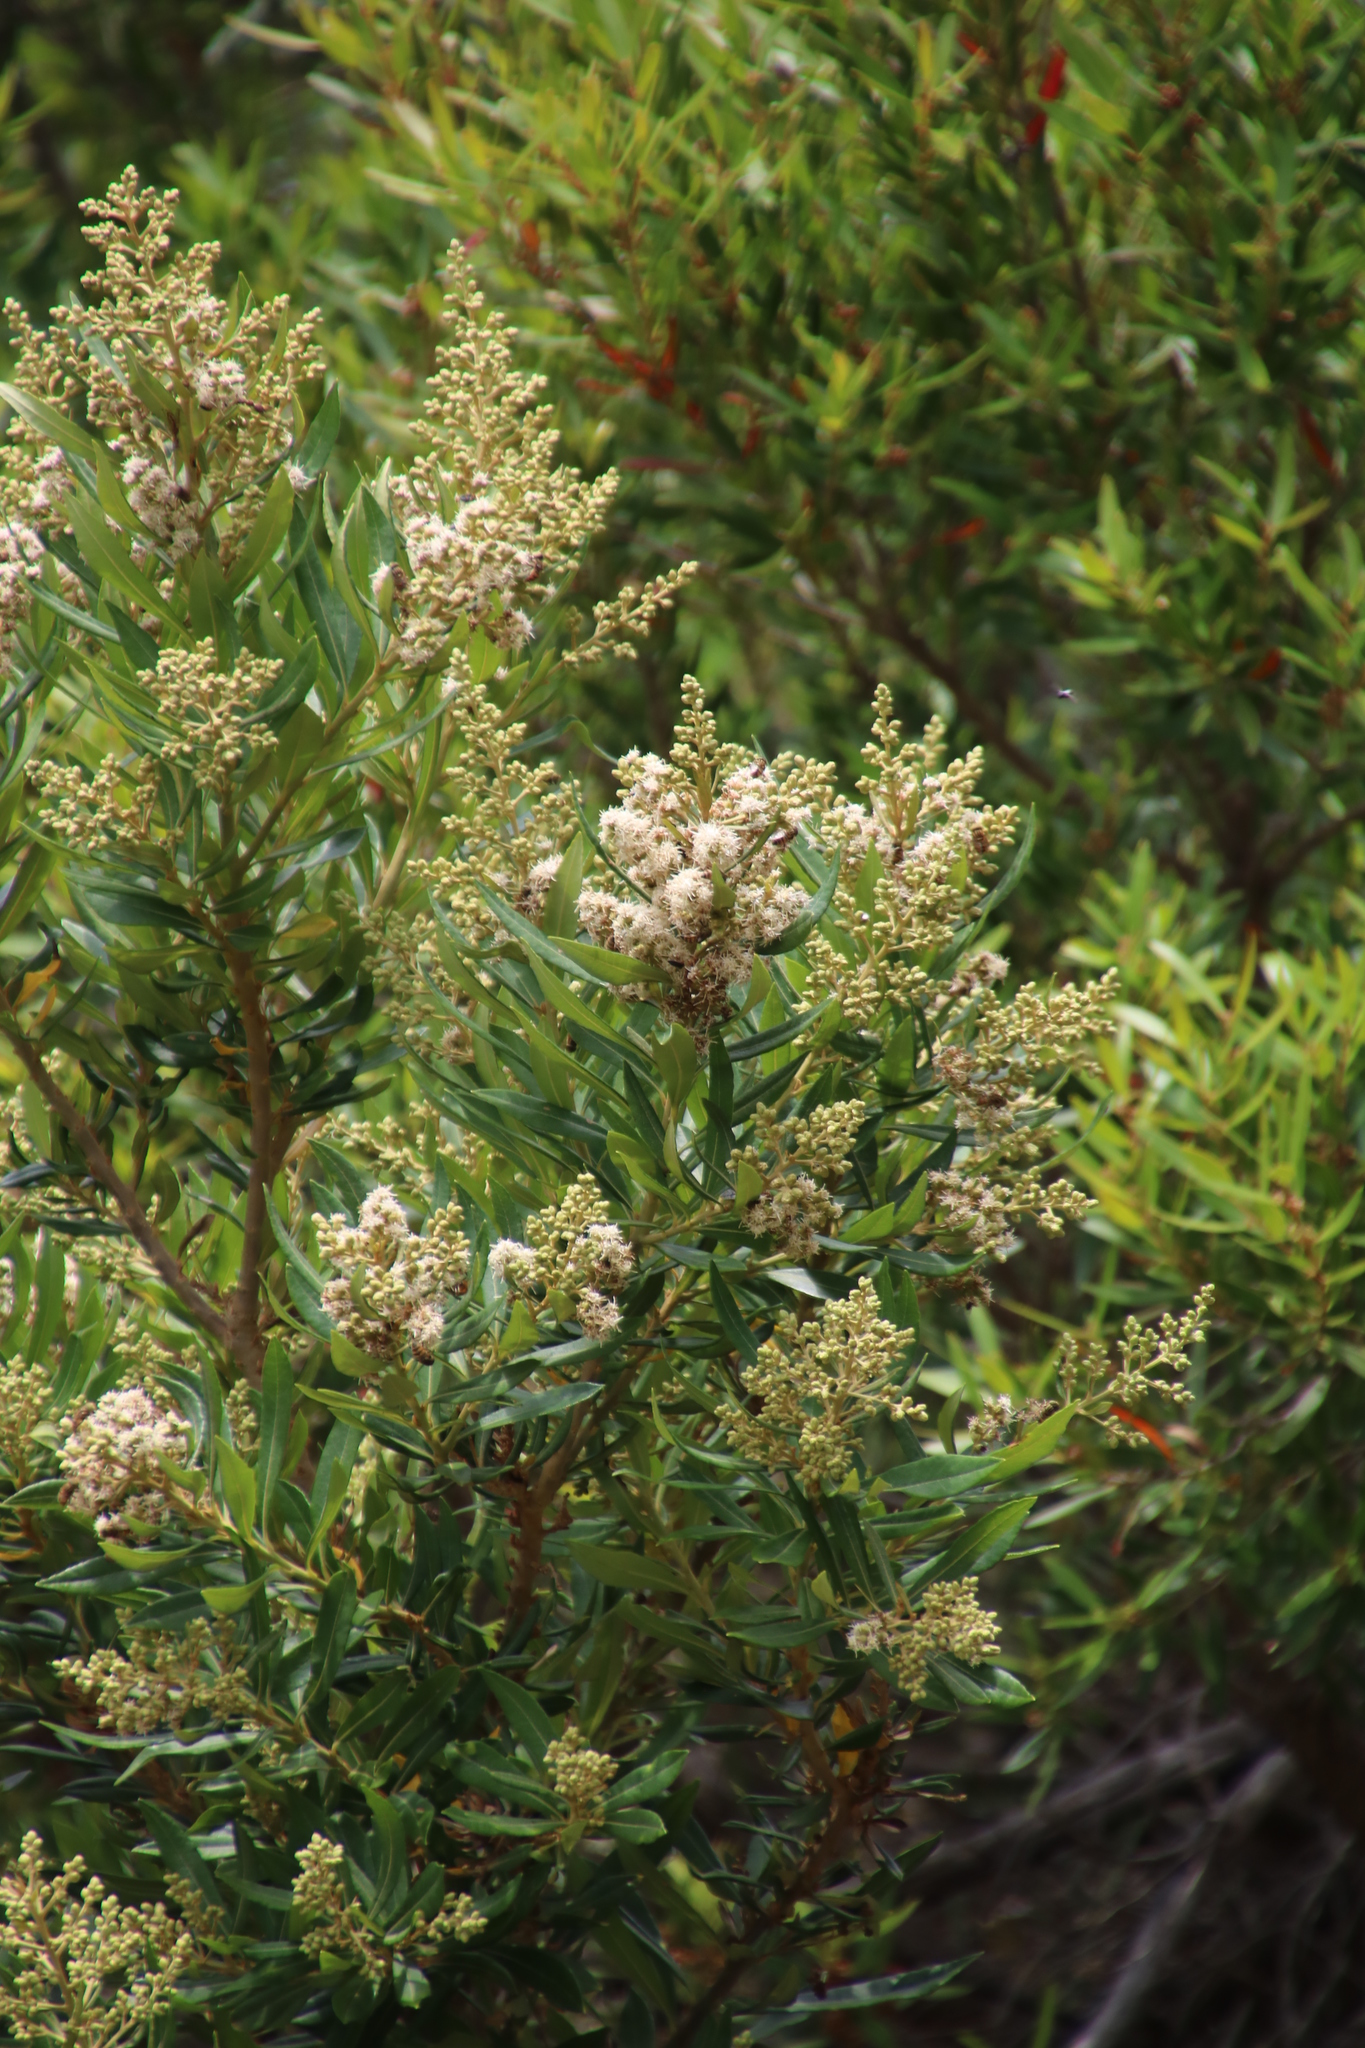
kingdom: Plantae
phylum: Tracheophyta
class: Magnoliopsida
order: Asterales
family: Asteraceae
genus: Brachylaena
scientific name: Brachylaena neriifolia
